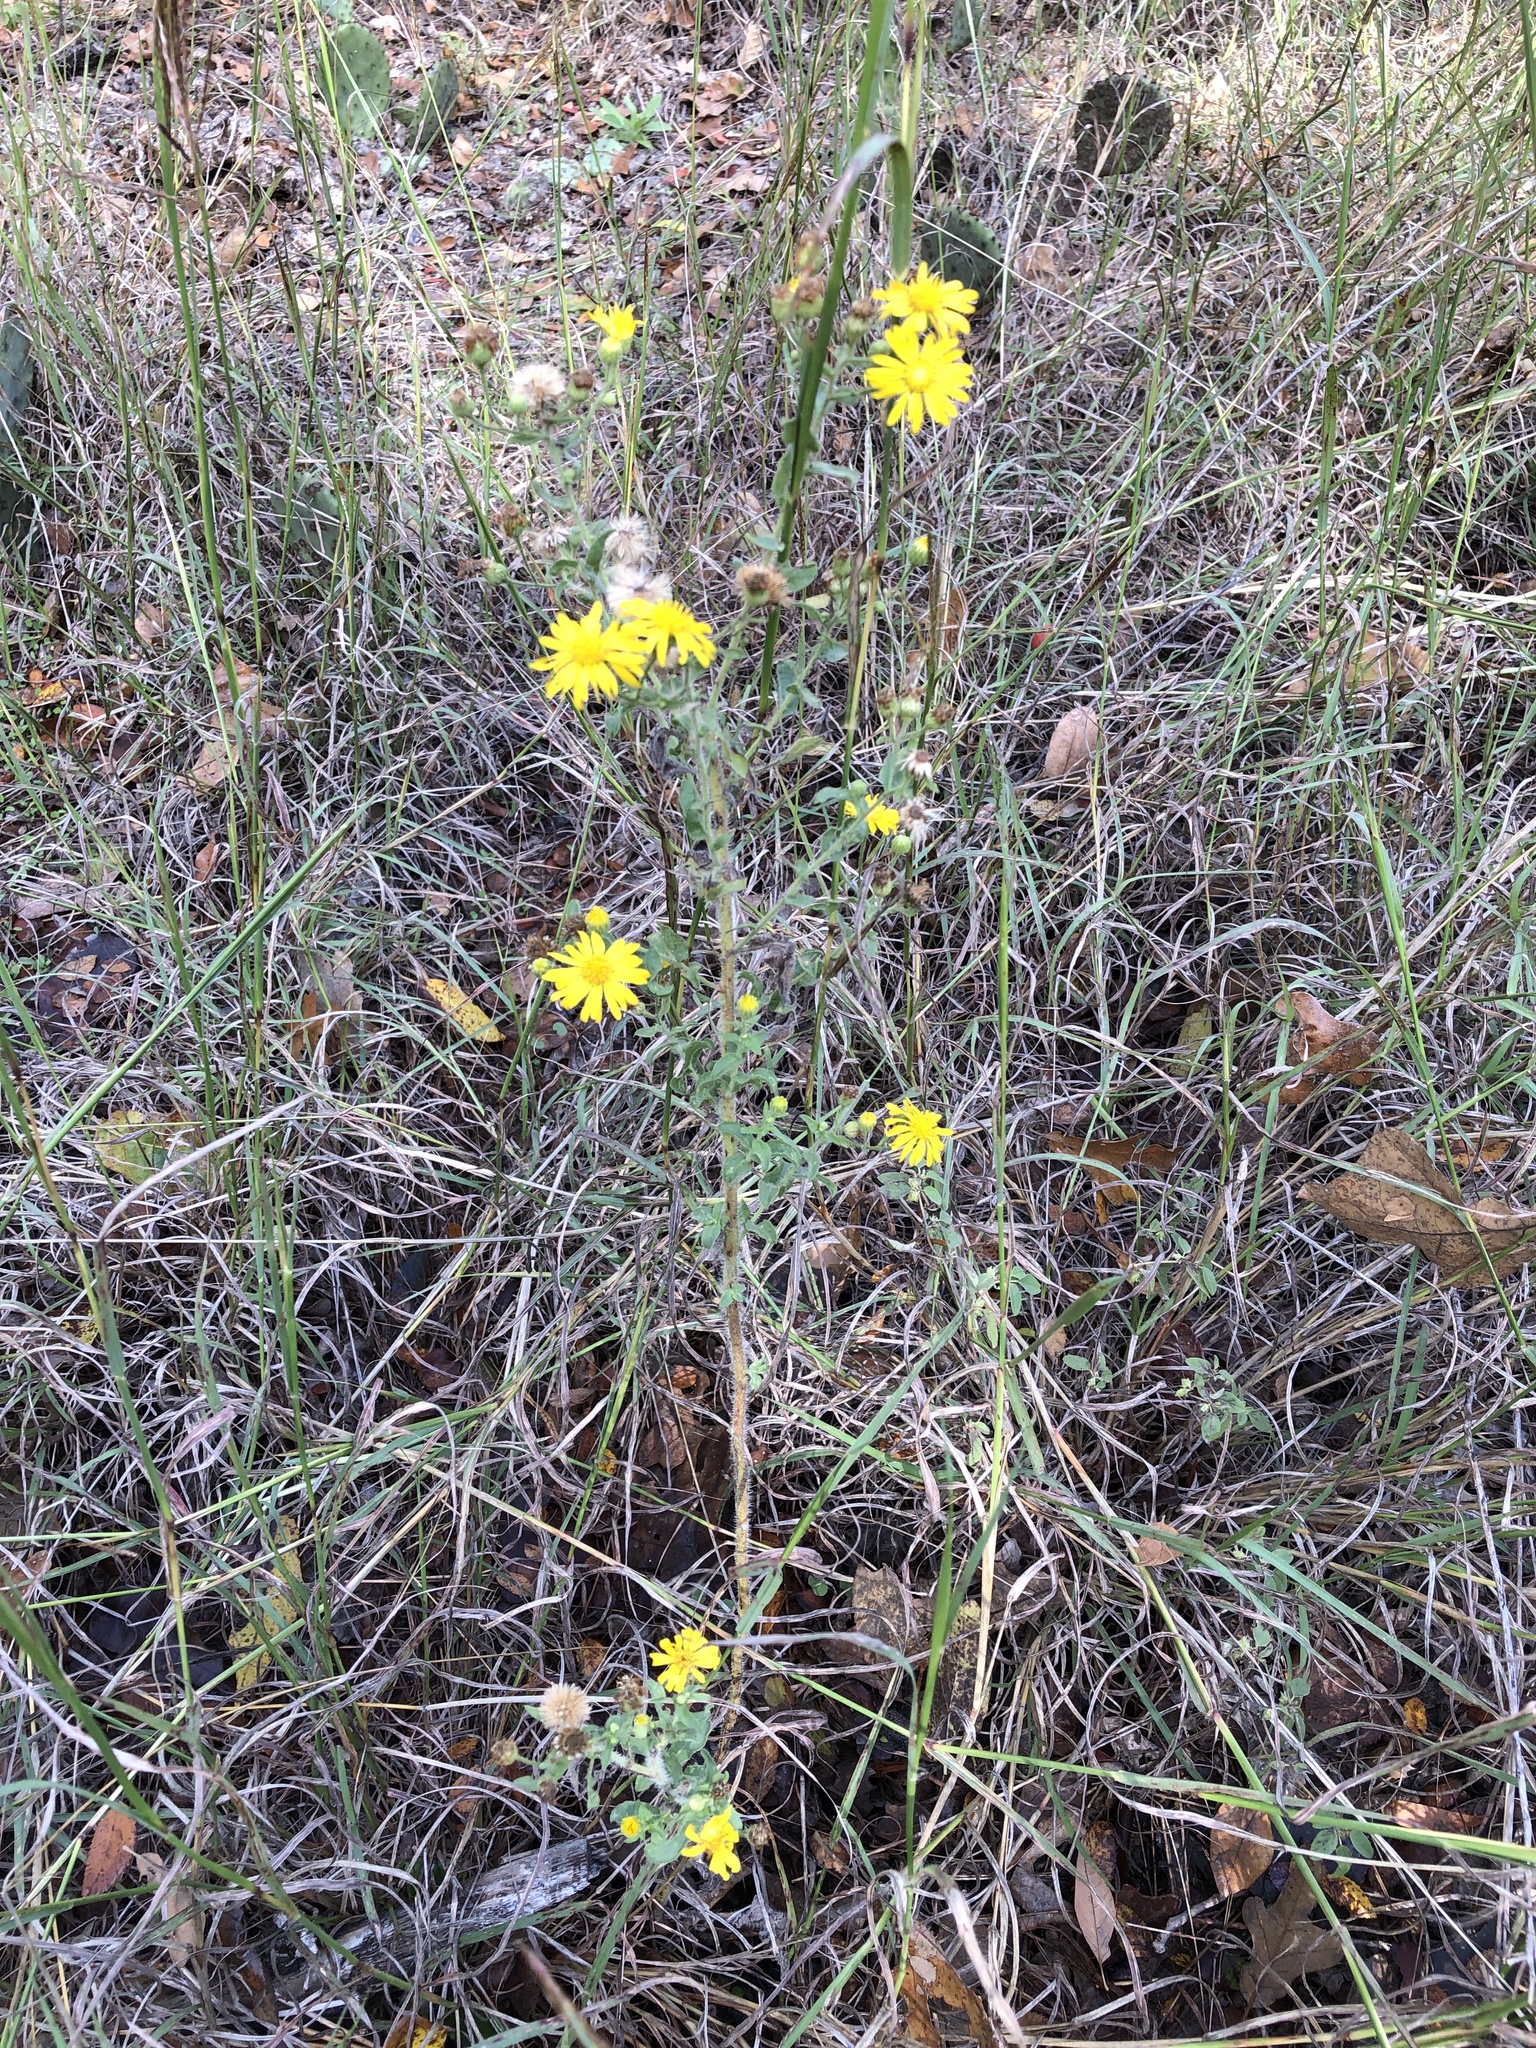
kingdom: Plantae
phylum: Tracheophyta
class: Magnoliopsida
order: Asterales
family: Asteraceae
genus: Heterotheca
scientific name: Heterotheca subaxillaris
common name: Camphorweed
